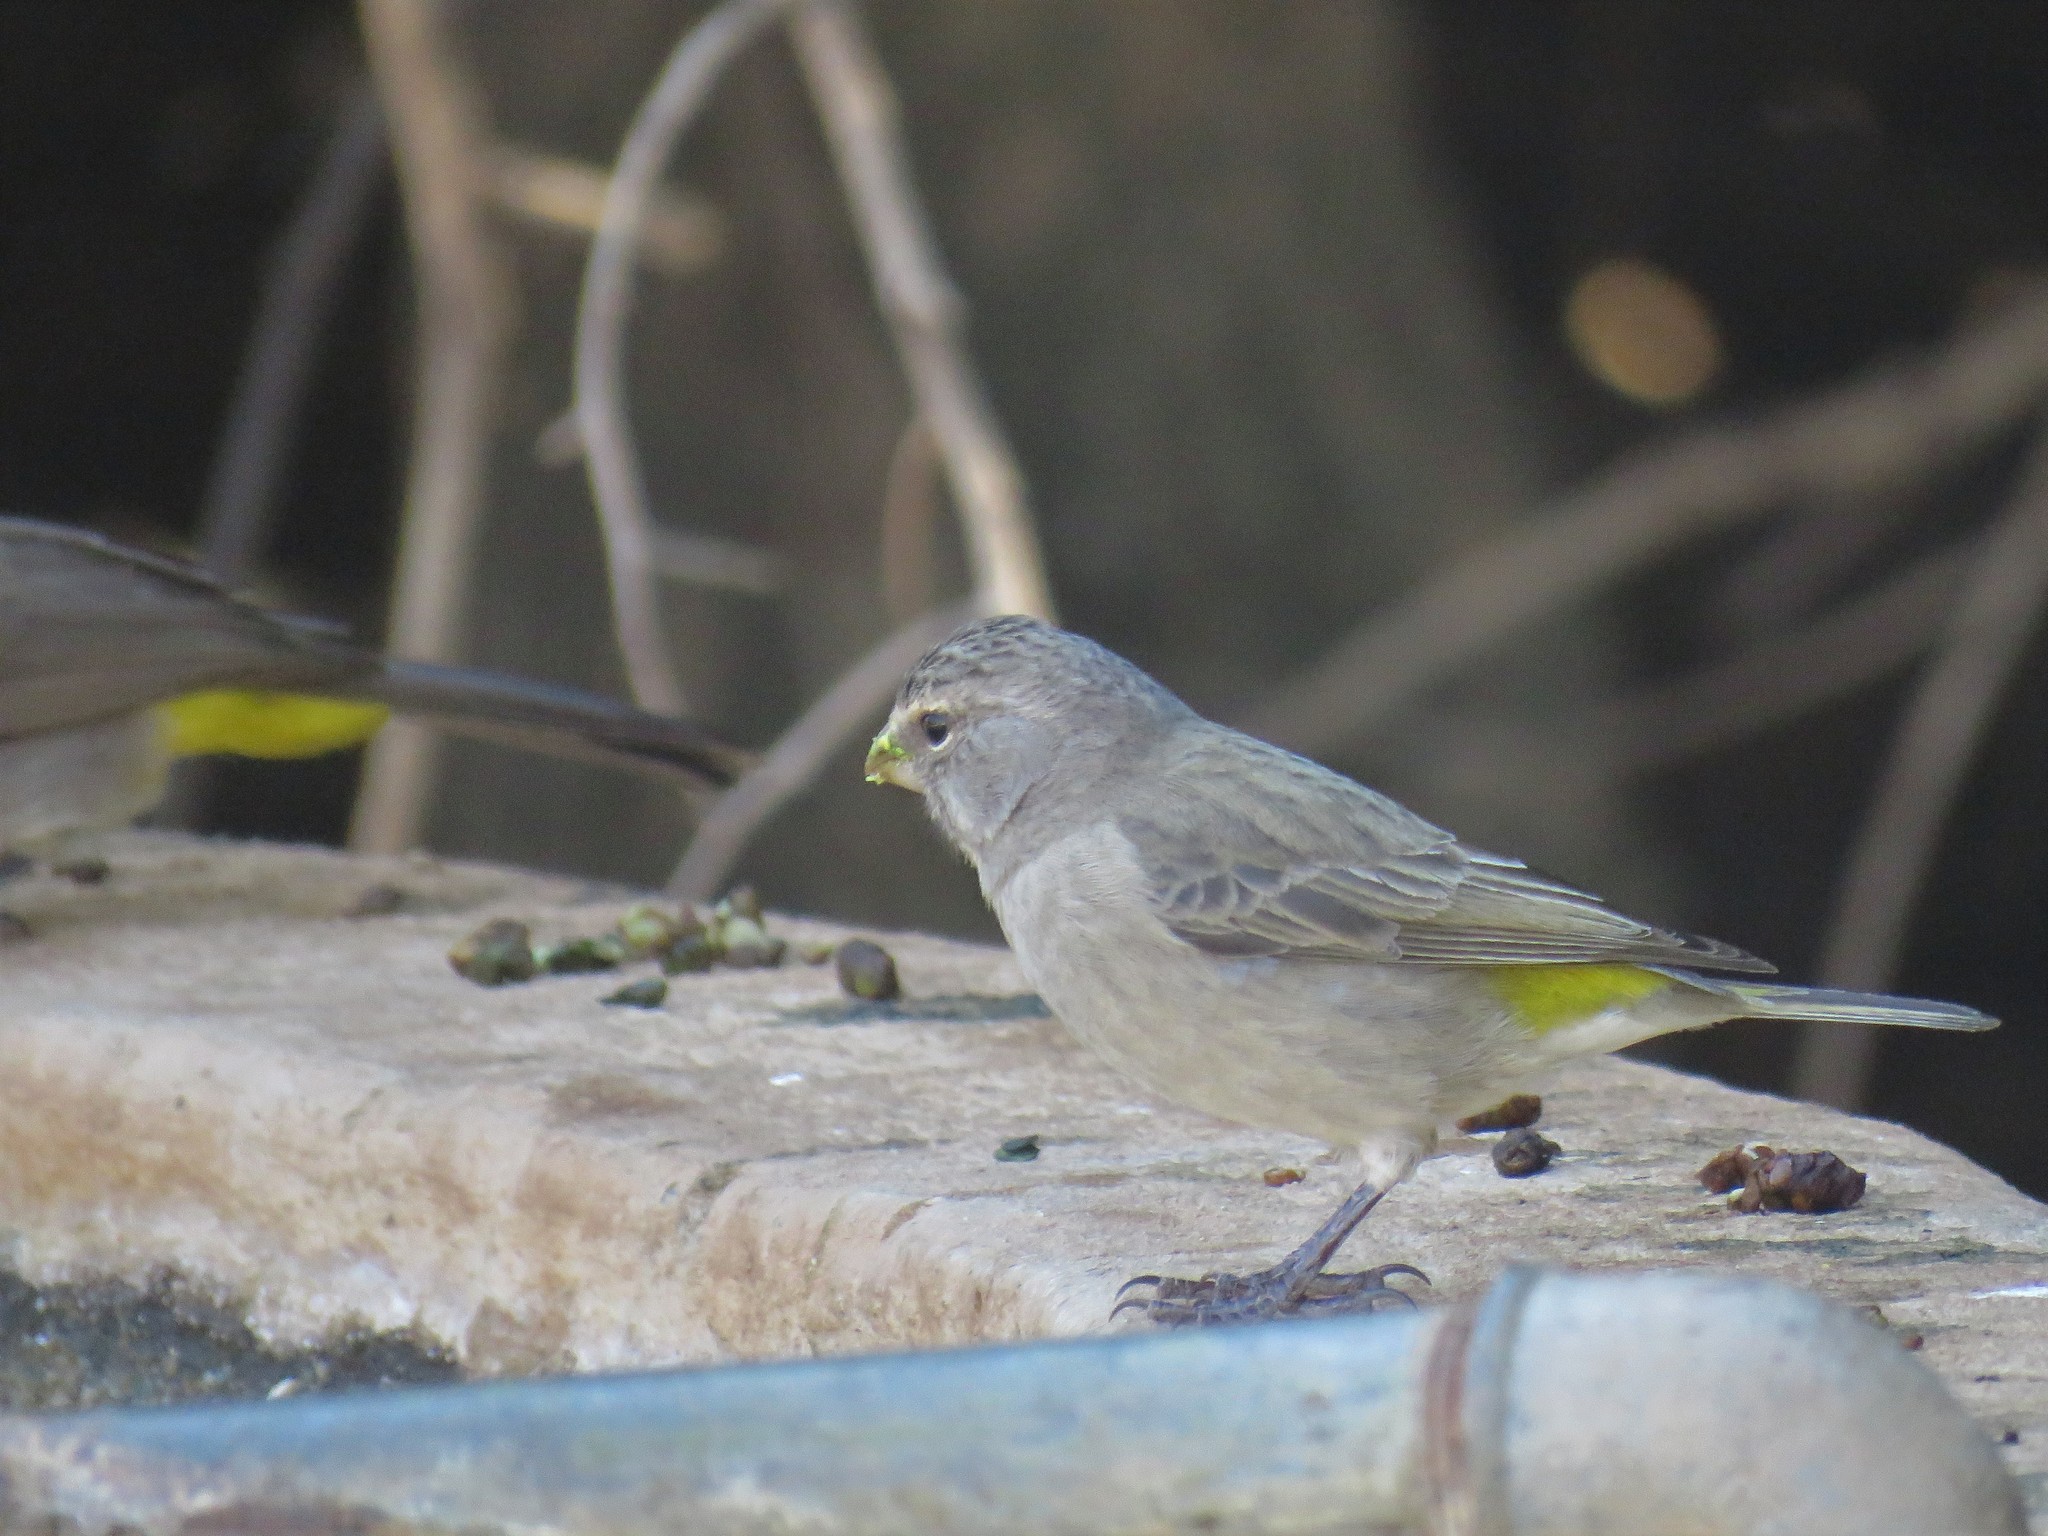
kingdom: Animalia
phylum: Chordata
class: Aves
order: Passeriformes
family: Fringillidae
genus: Crithagra
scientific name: Crithagra albogularis
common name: White-throated canary
